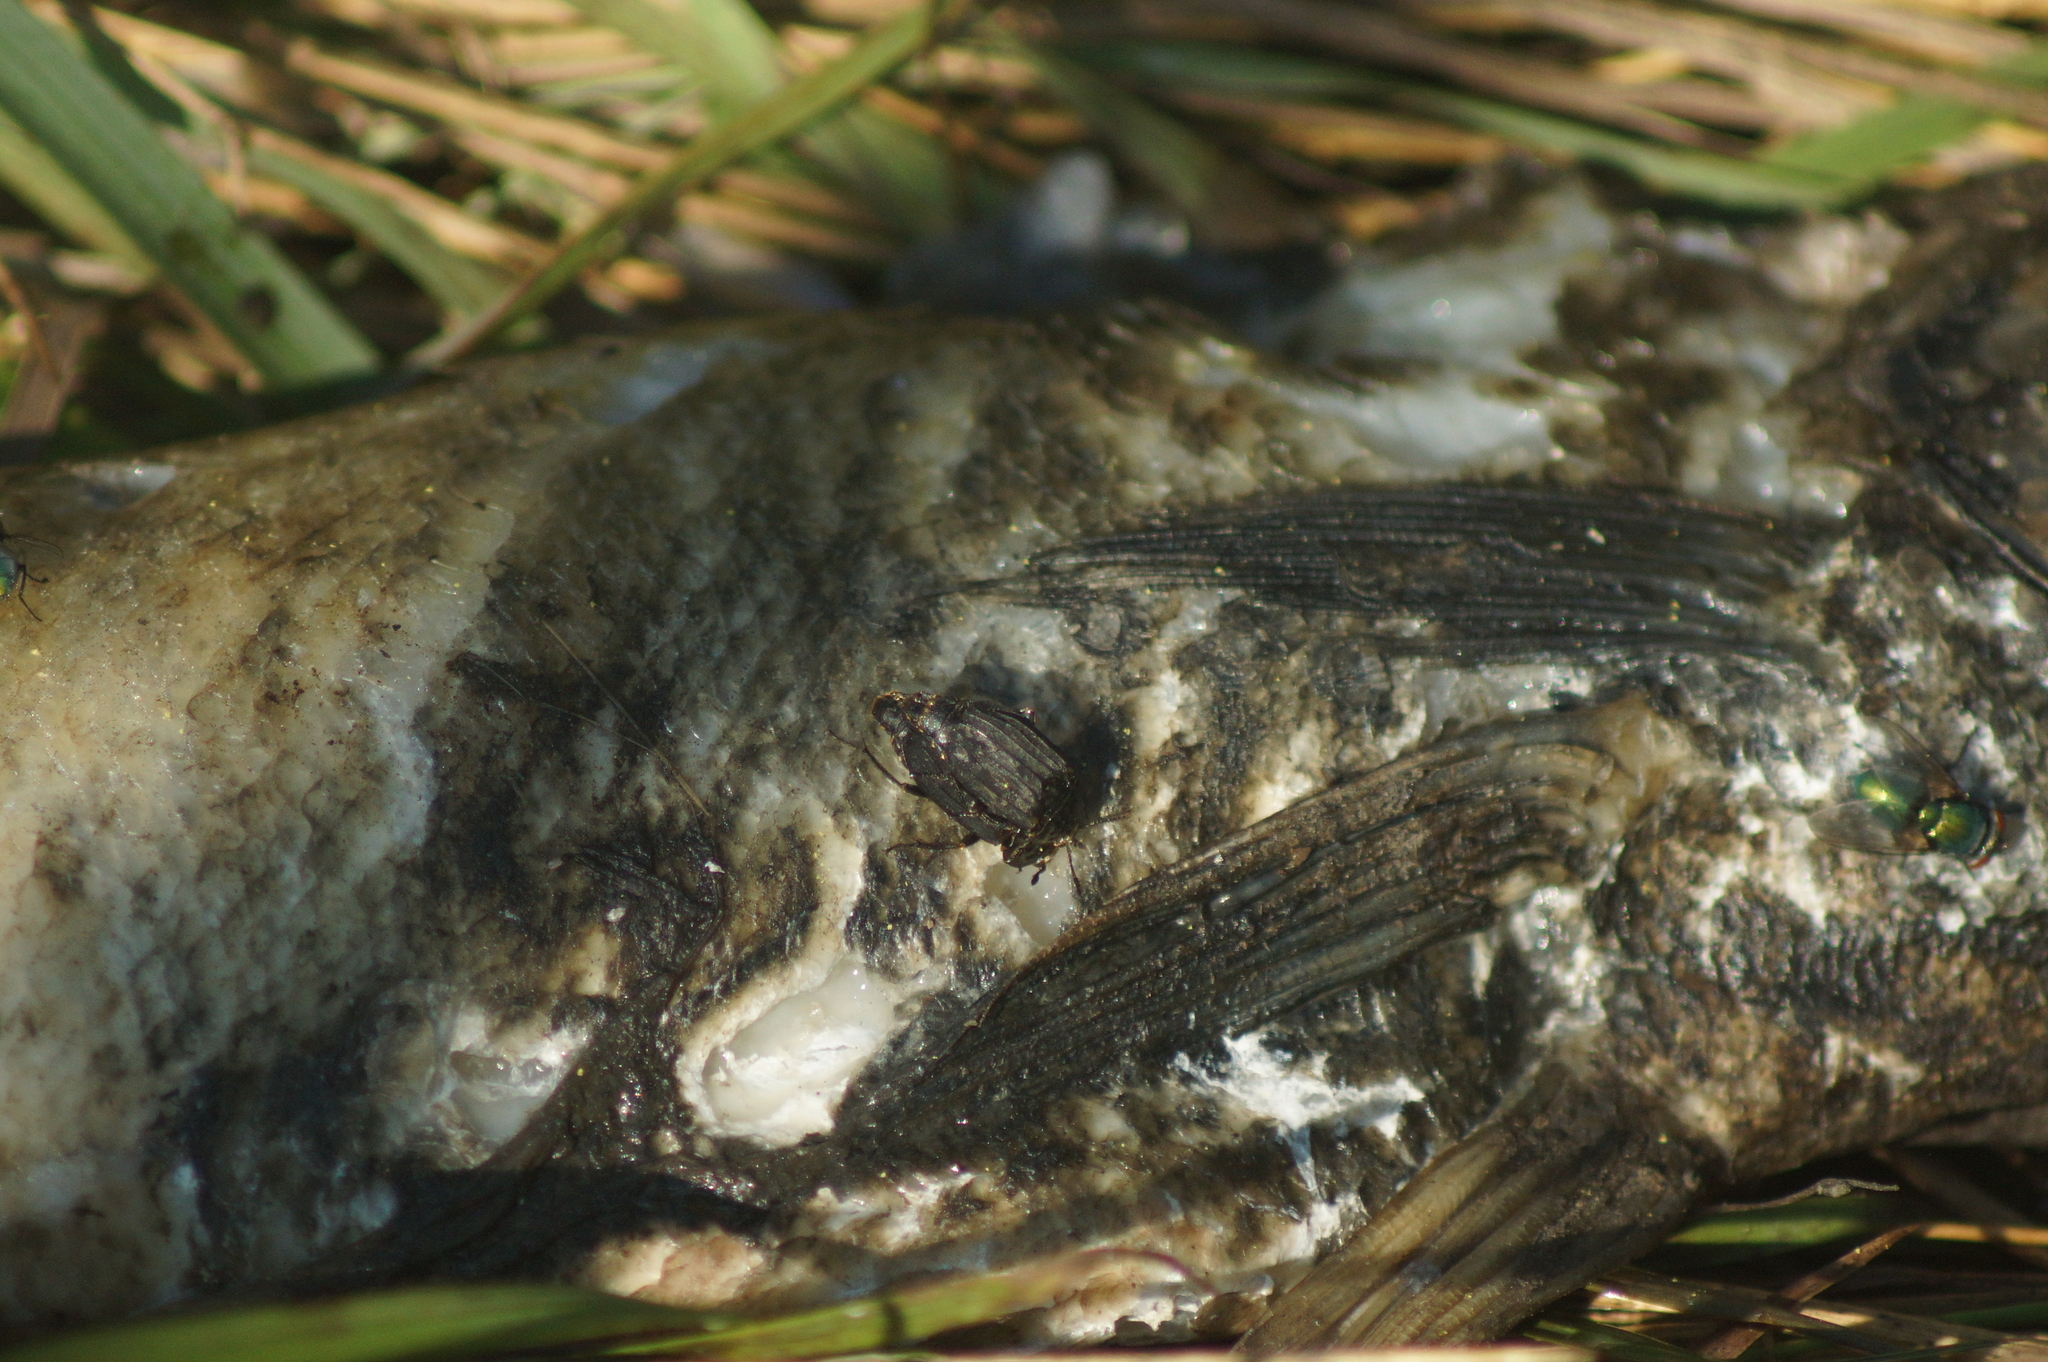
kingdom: Animalia
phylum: Arthropoda
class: Insecta
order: Coleoptera
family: Staphylinidae
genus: Thanatophilus
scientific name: Thanatophilus sinuatus
